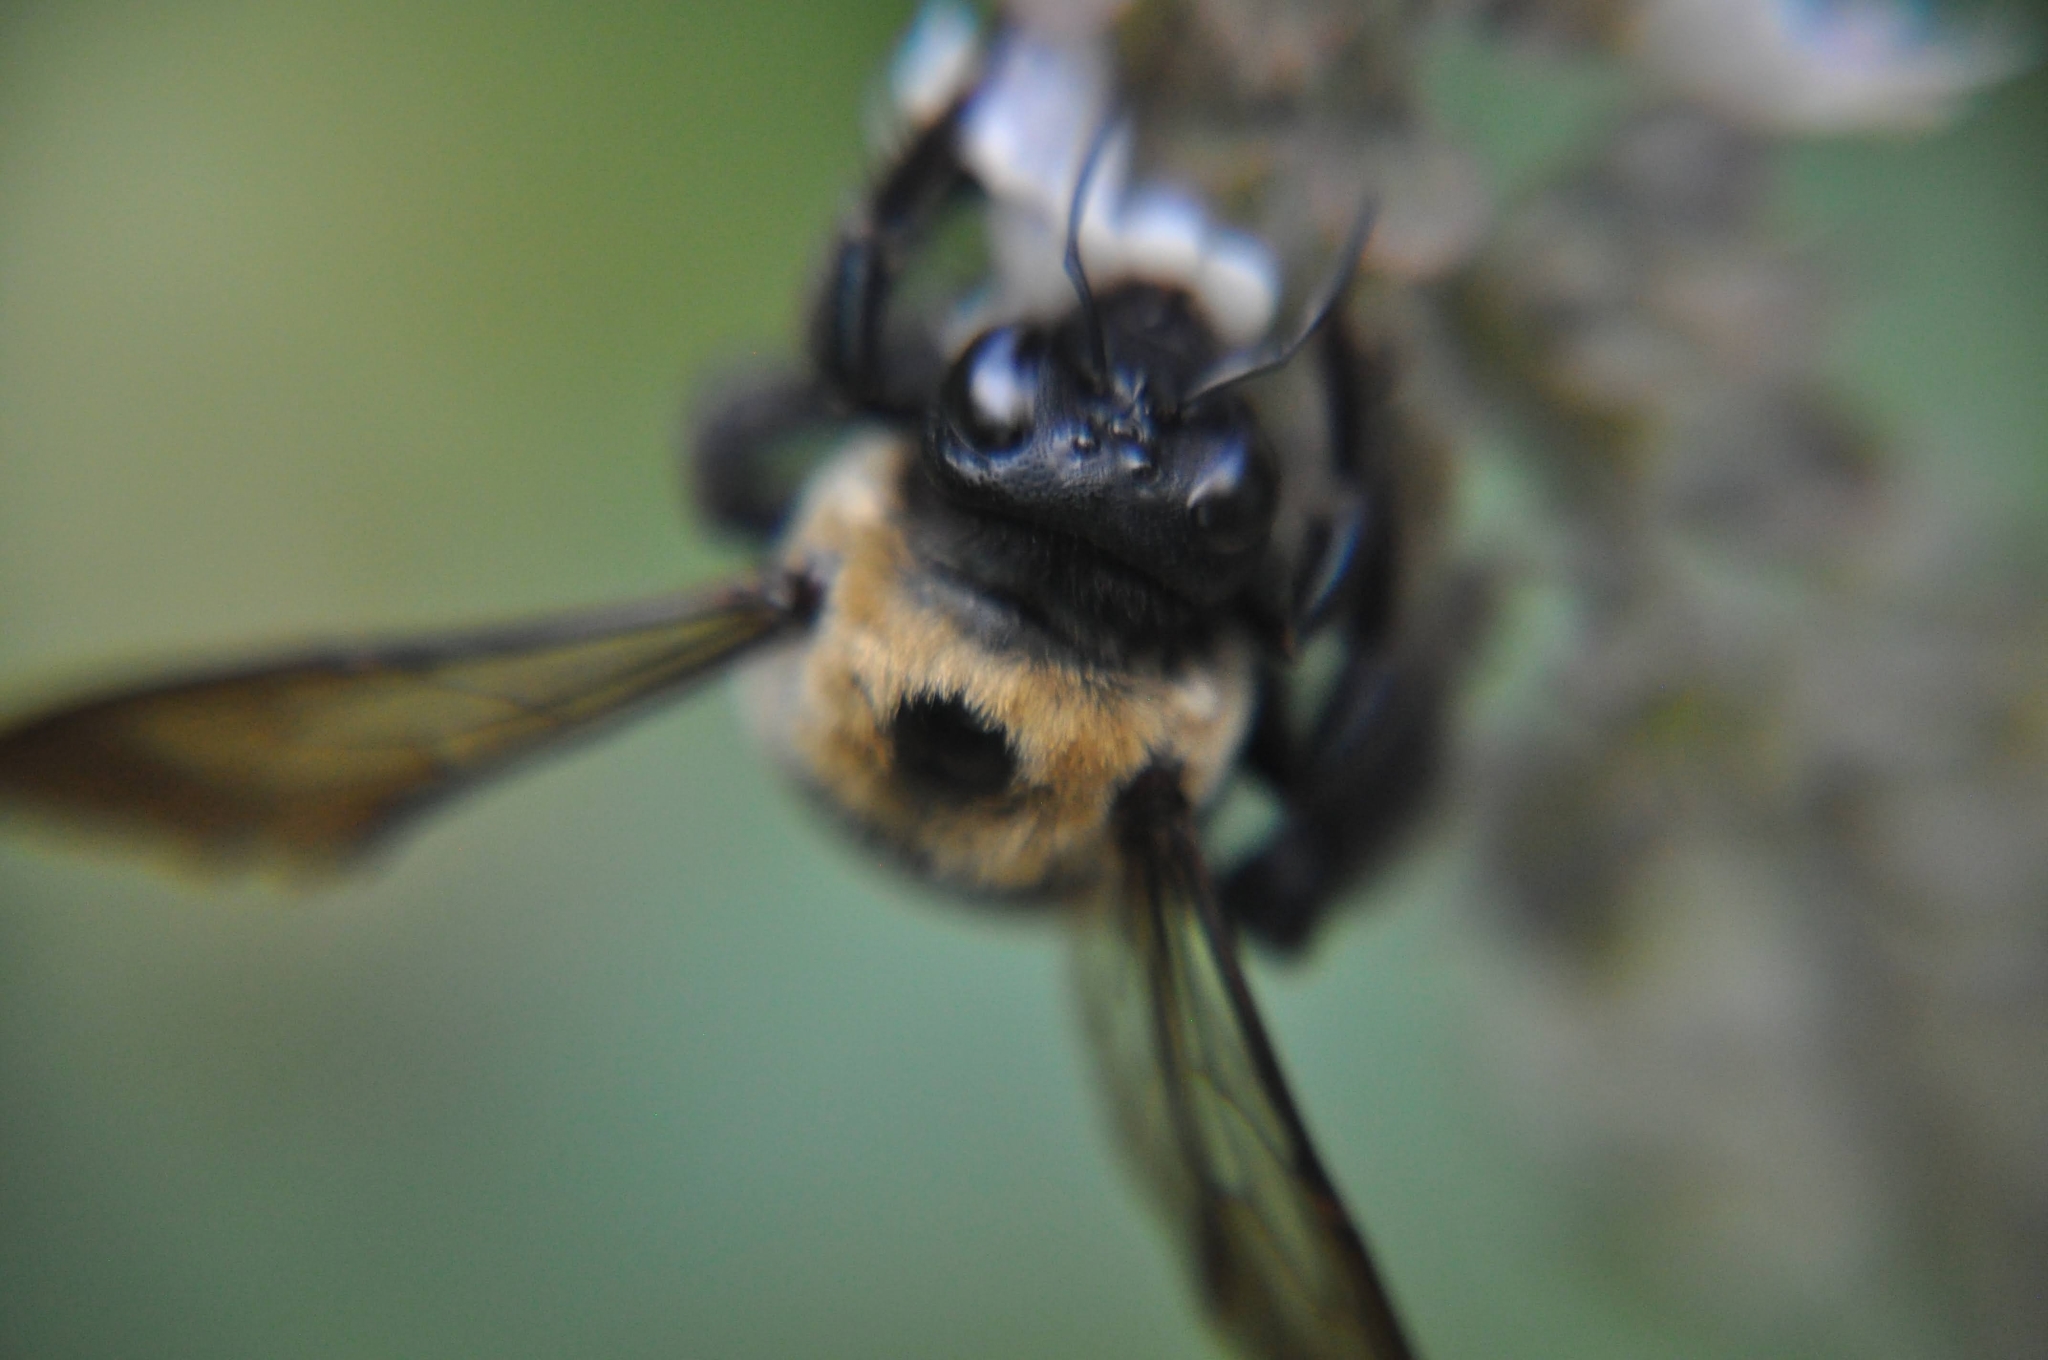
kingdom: Animalia
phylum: Arthropoda
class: Insecta
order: Hymenoptera
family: Apidae
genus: Xylocopa
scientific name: Xylocopa virginica
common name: Carpenter bee
